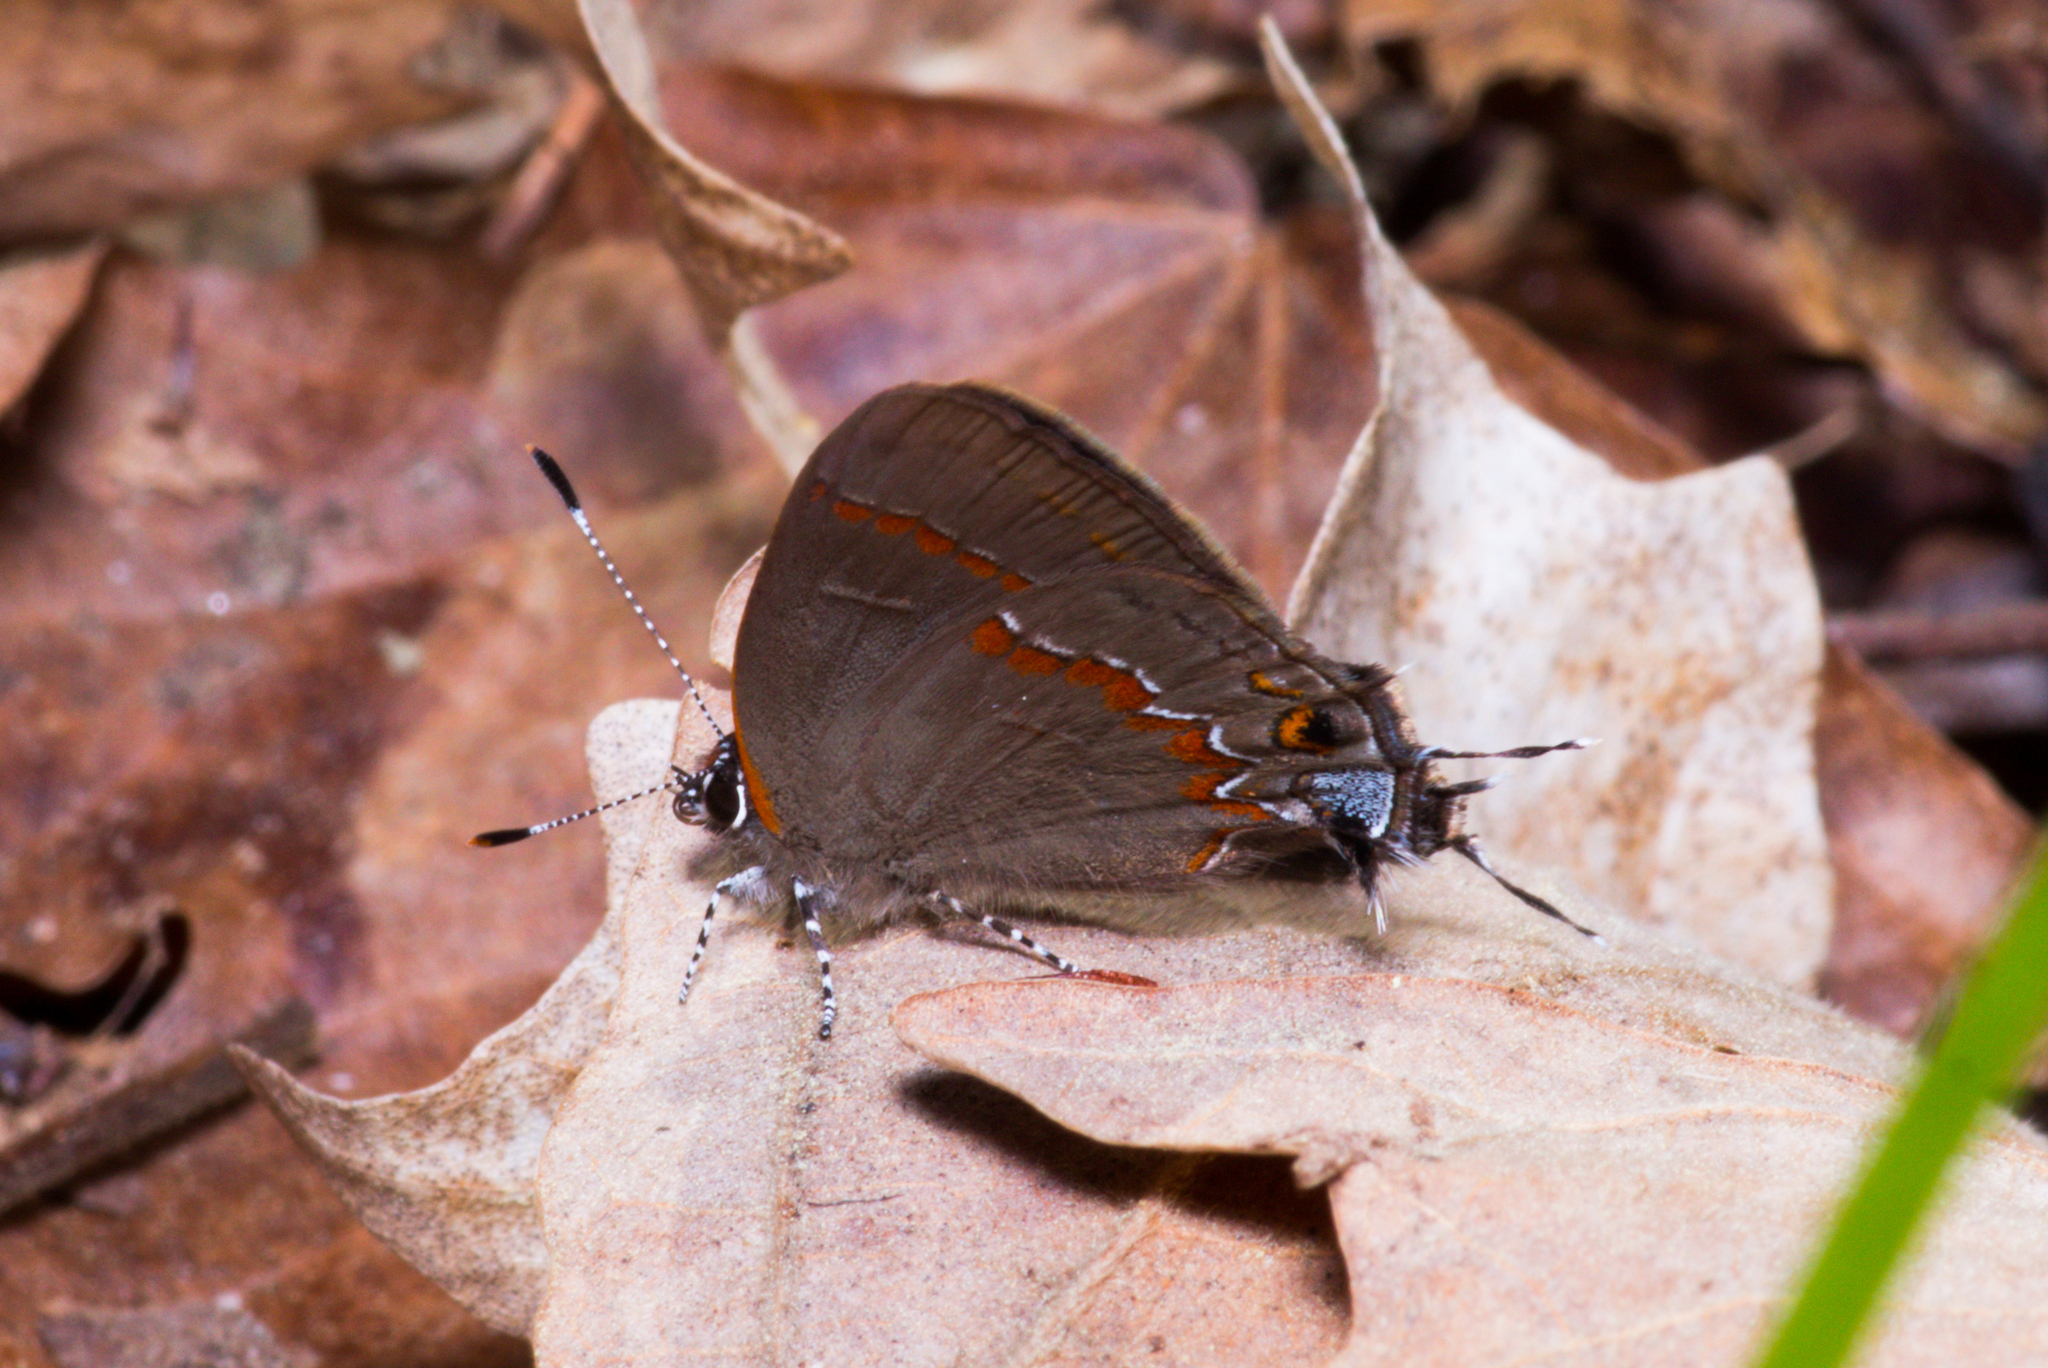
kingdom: Animalia
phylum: Arthropoda
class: Insecta
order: Lepidoptera
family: Lycaenidae
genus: Calycopis
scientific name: Calycopis cecrops
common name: Red-banded hairstreak
